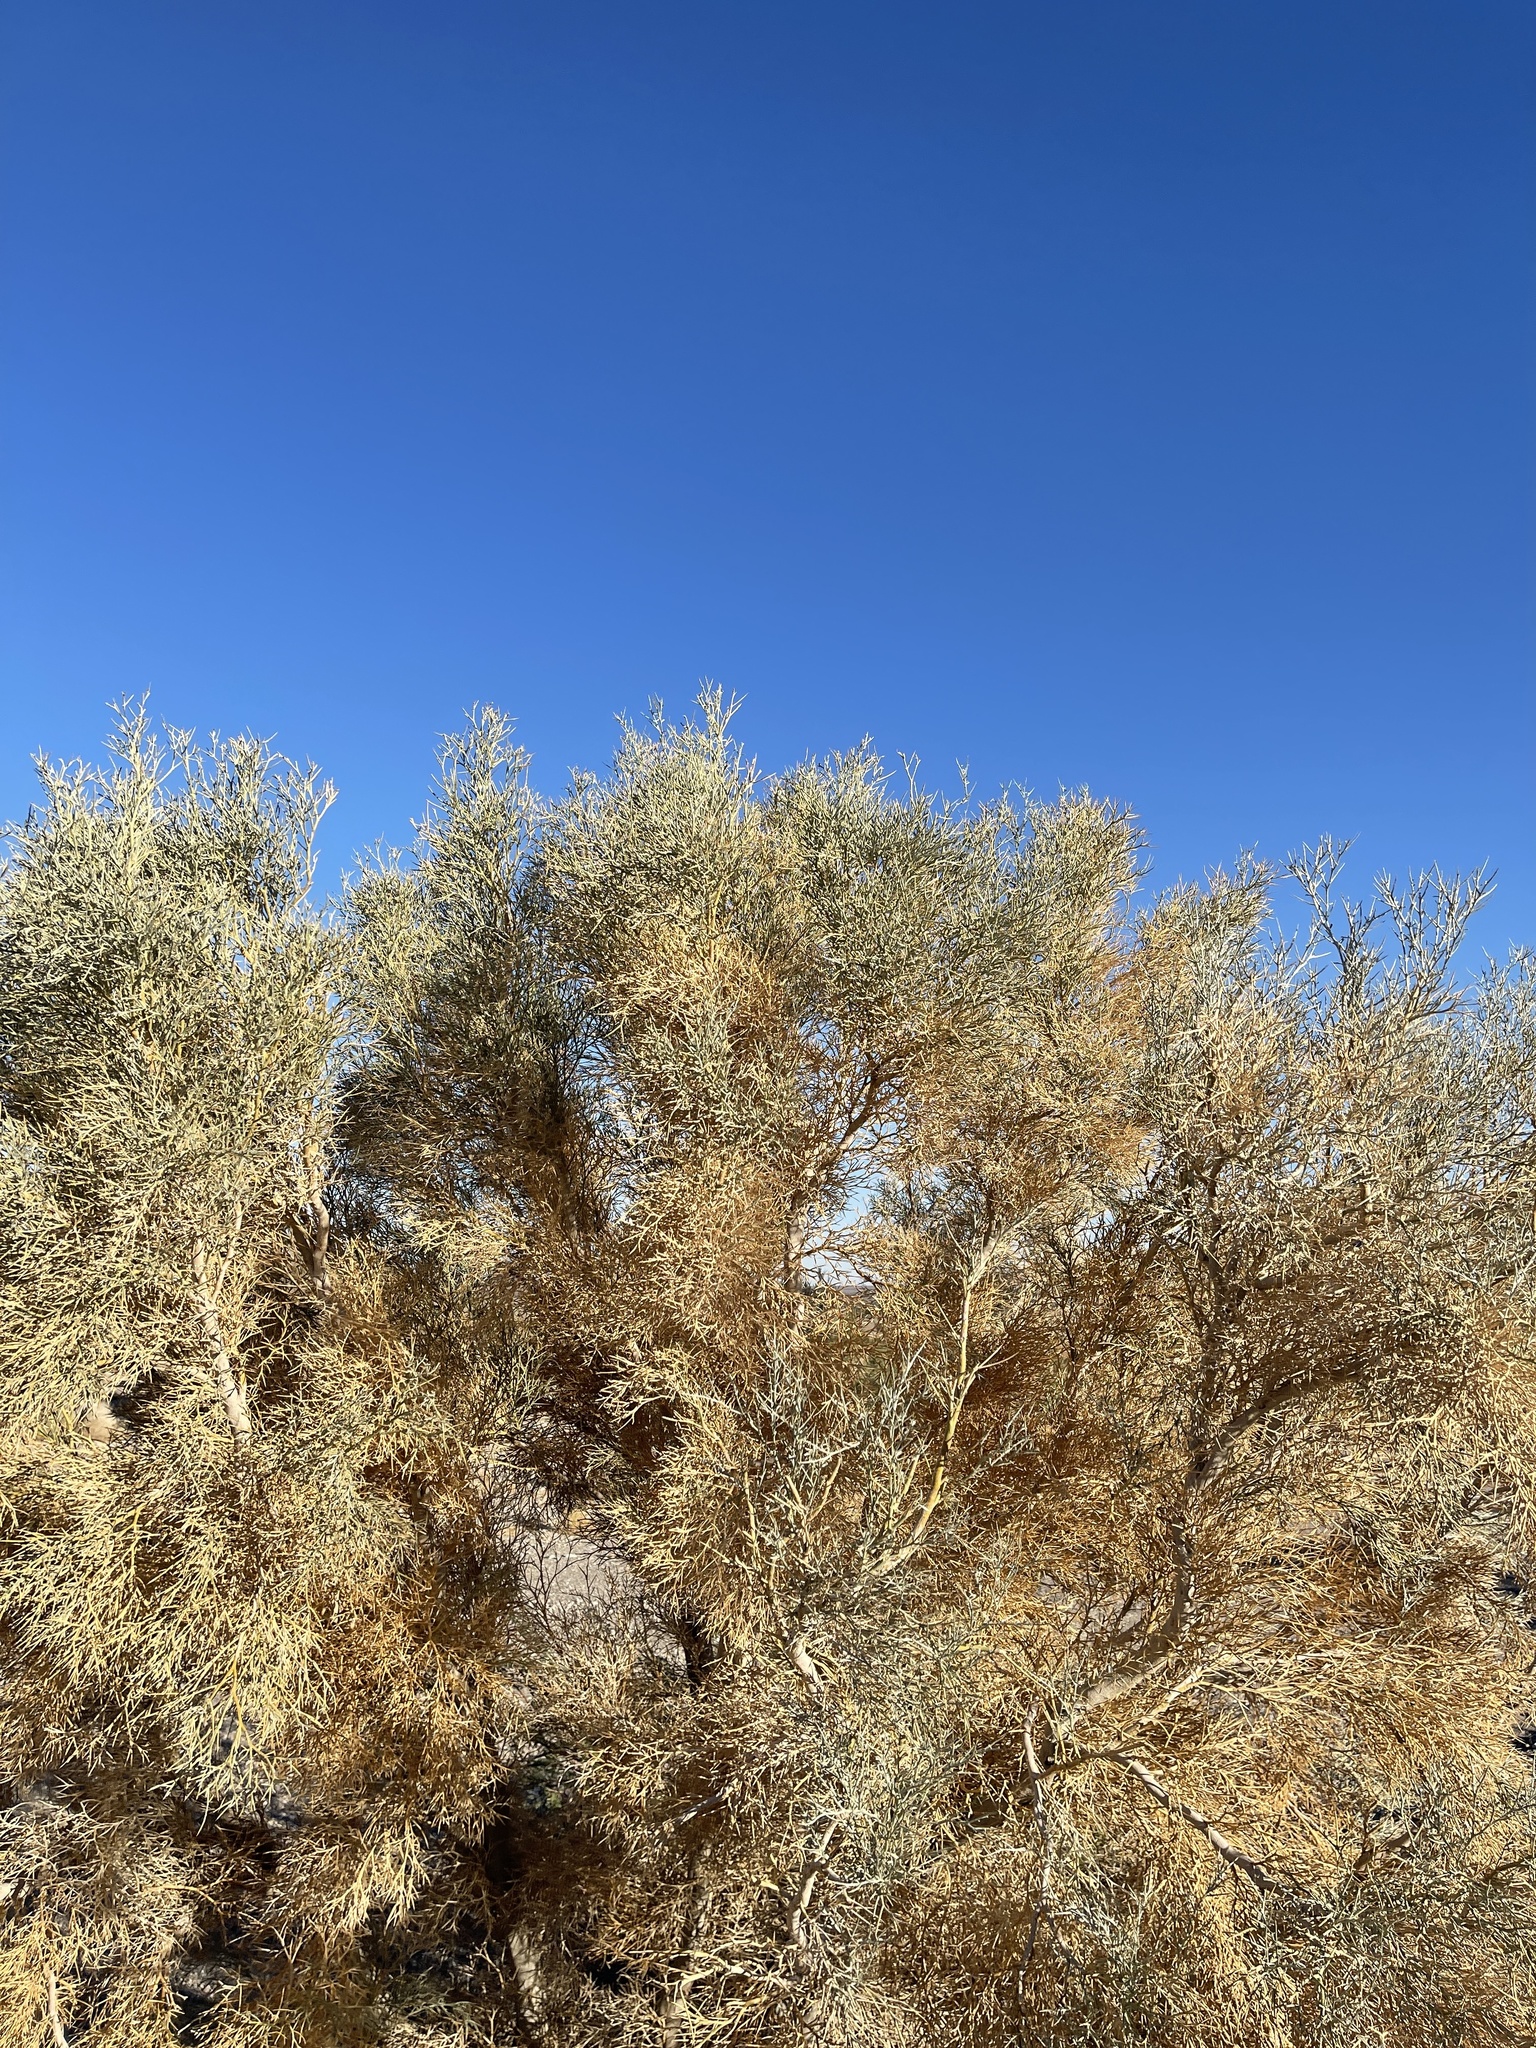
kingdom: Plantae
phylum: Tracheophyta
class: Magnoliopsida
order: Fabales
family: Fabaceae
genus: Psorothamnus
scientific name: Psorothamnus spinosus
